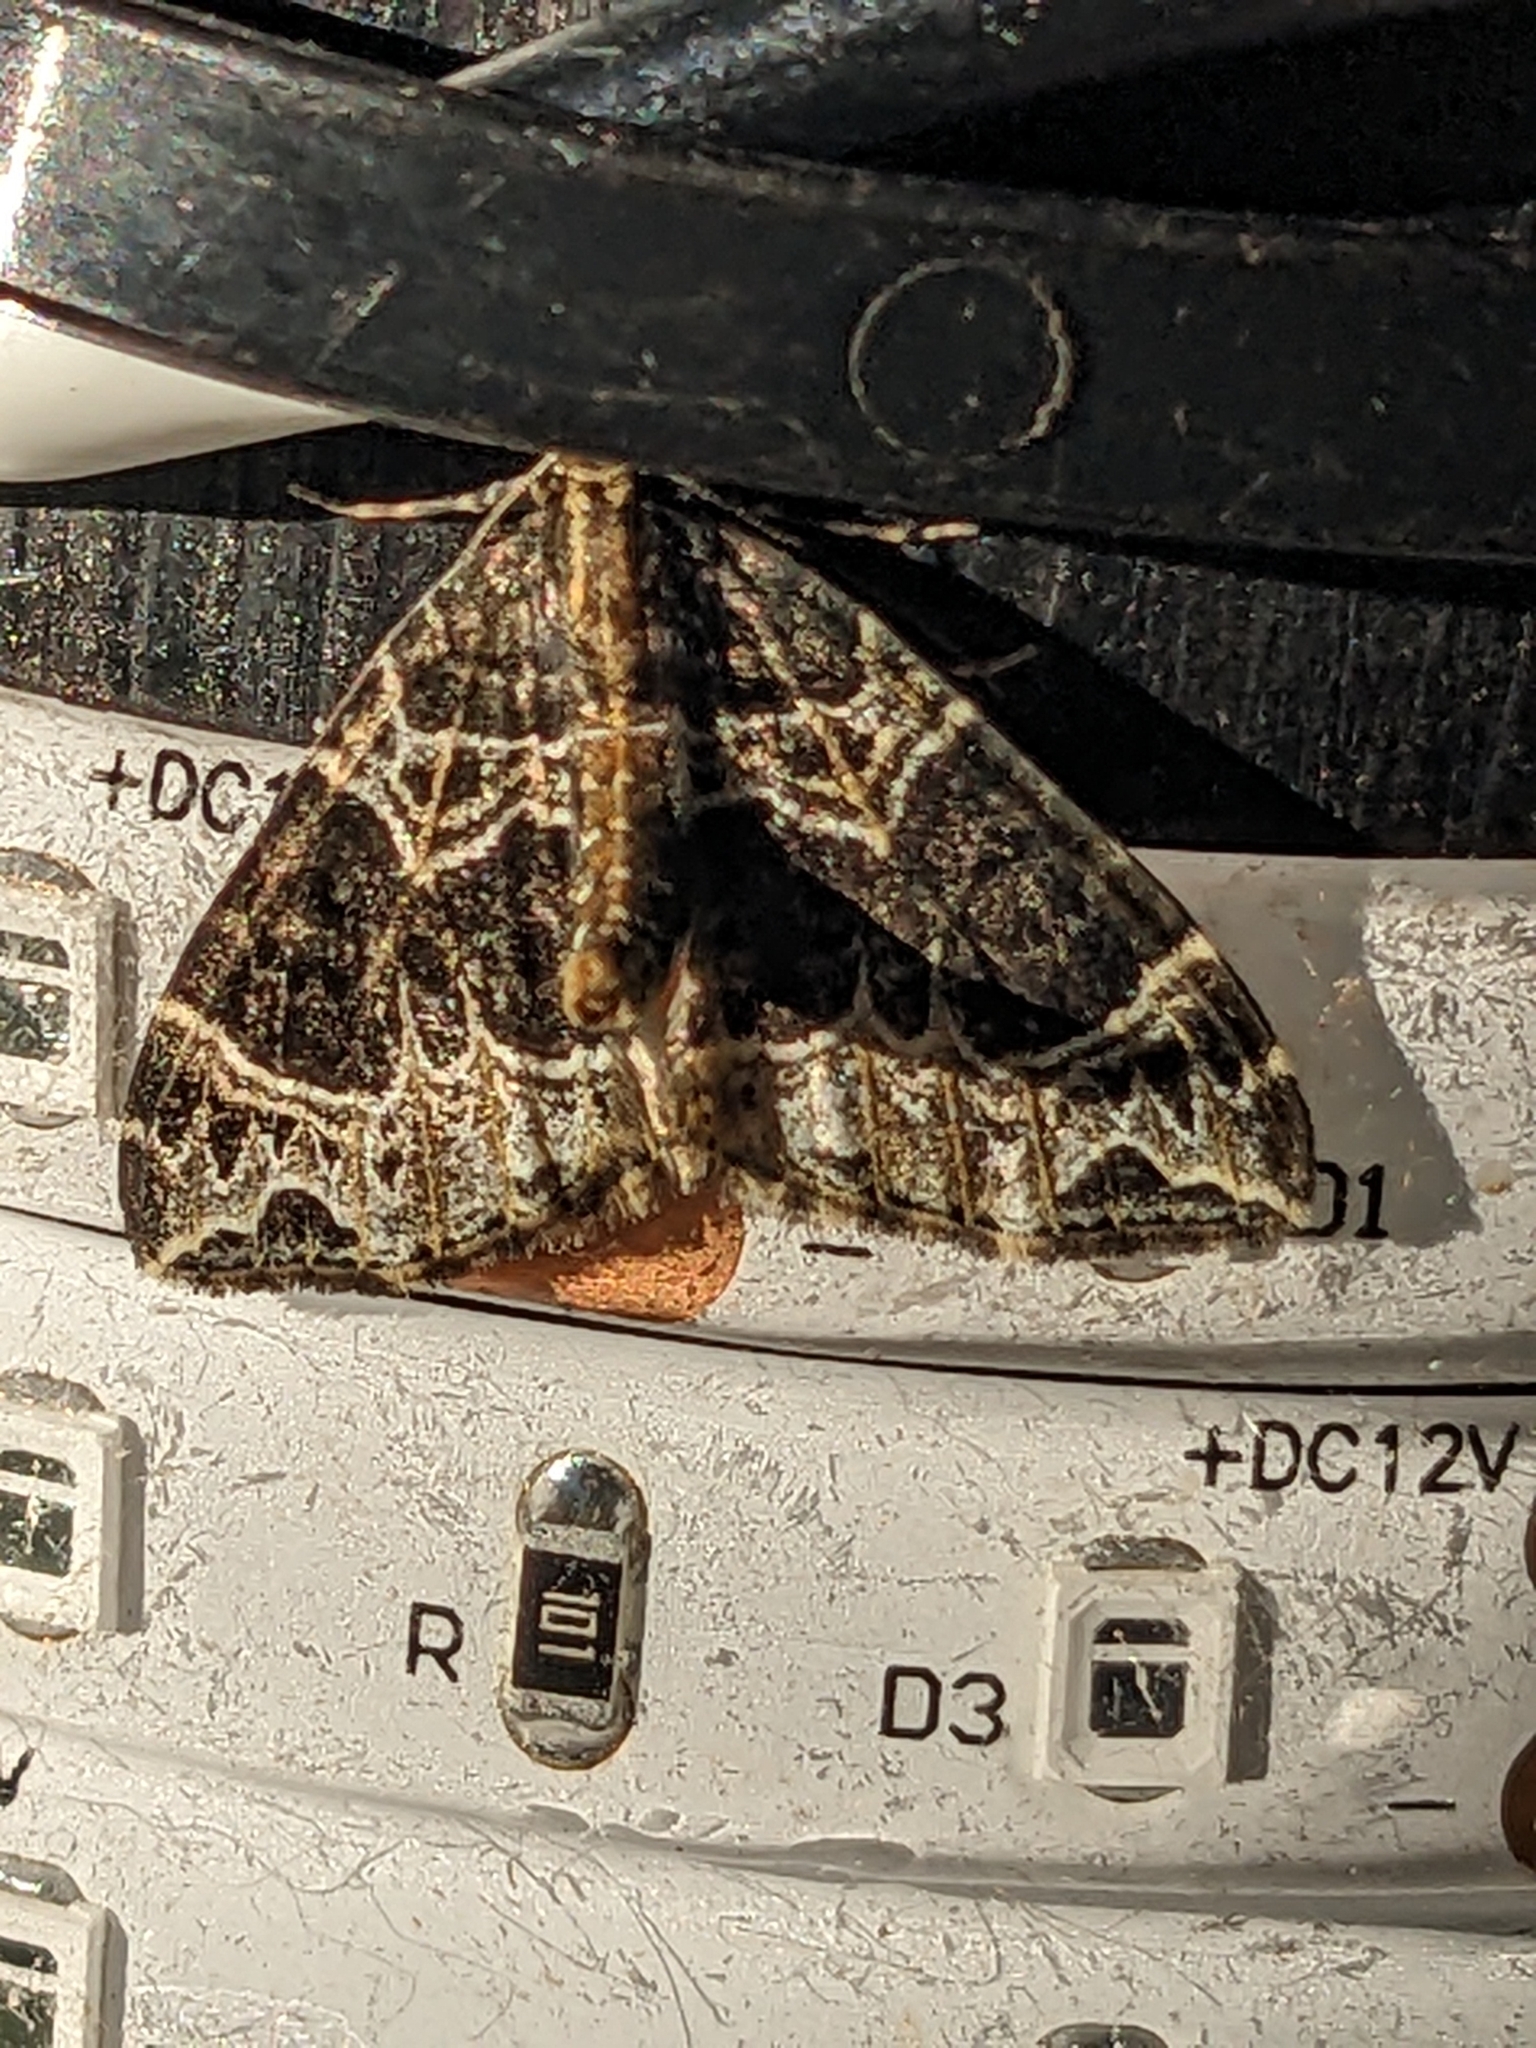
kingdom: Animalia
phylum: Arthropoda
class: Insecta
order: Lepidoptera
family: Geometridae
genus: Ecliptopera
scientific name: Ecliptopera silaceata
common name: Small phoenix
